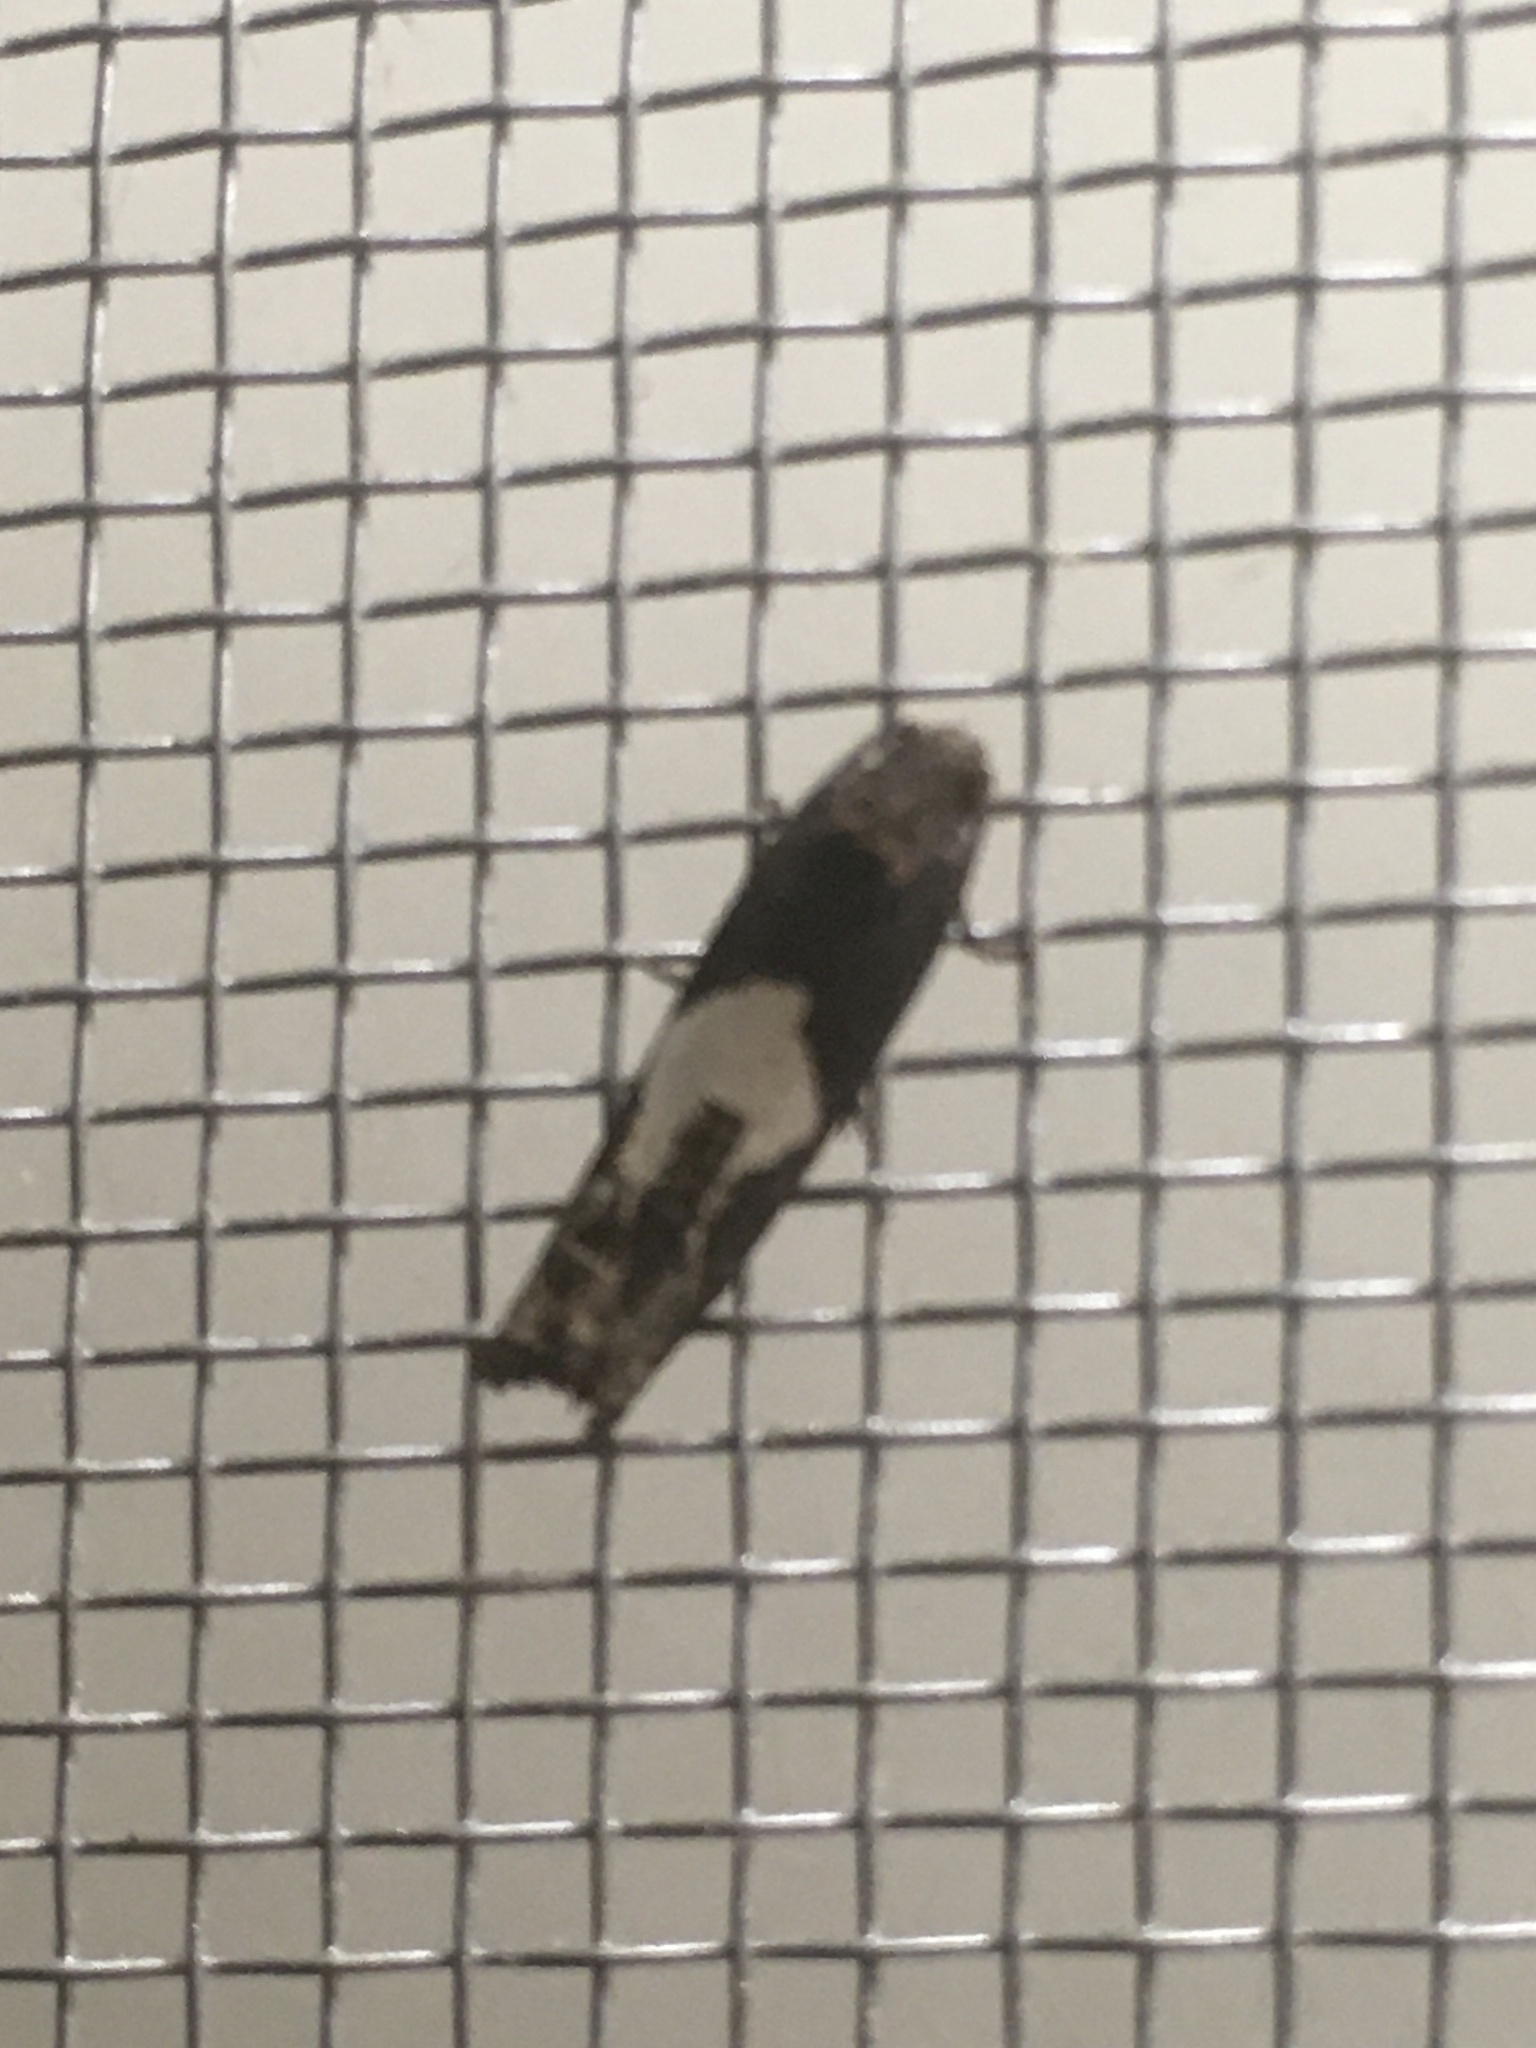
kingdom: Animalia
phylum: Arthropoda
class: Insecta
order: Lepidoptera
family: Tortricidae
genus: Epiblema
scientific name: Epiblema otiosana
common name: Bidens borer moth
